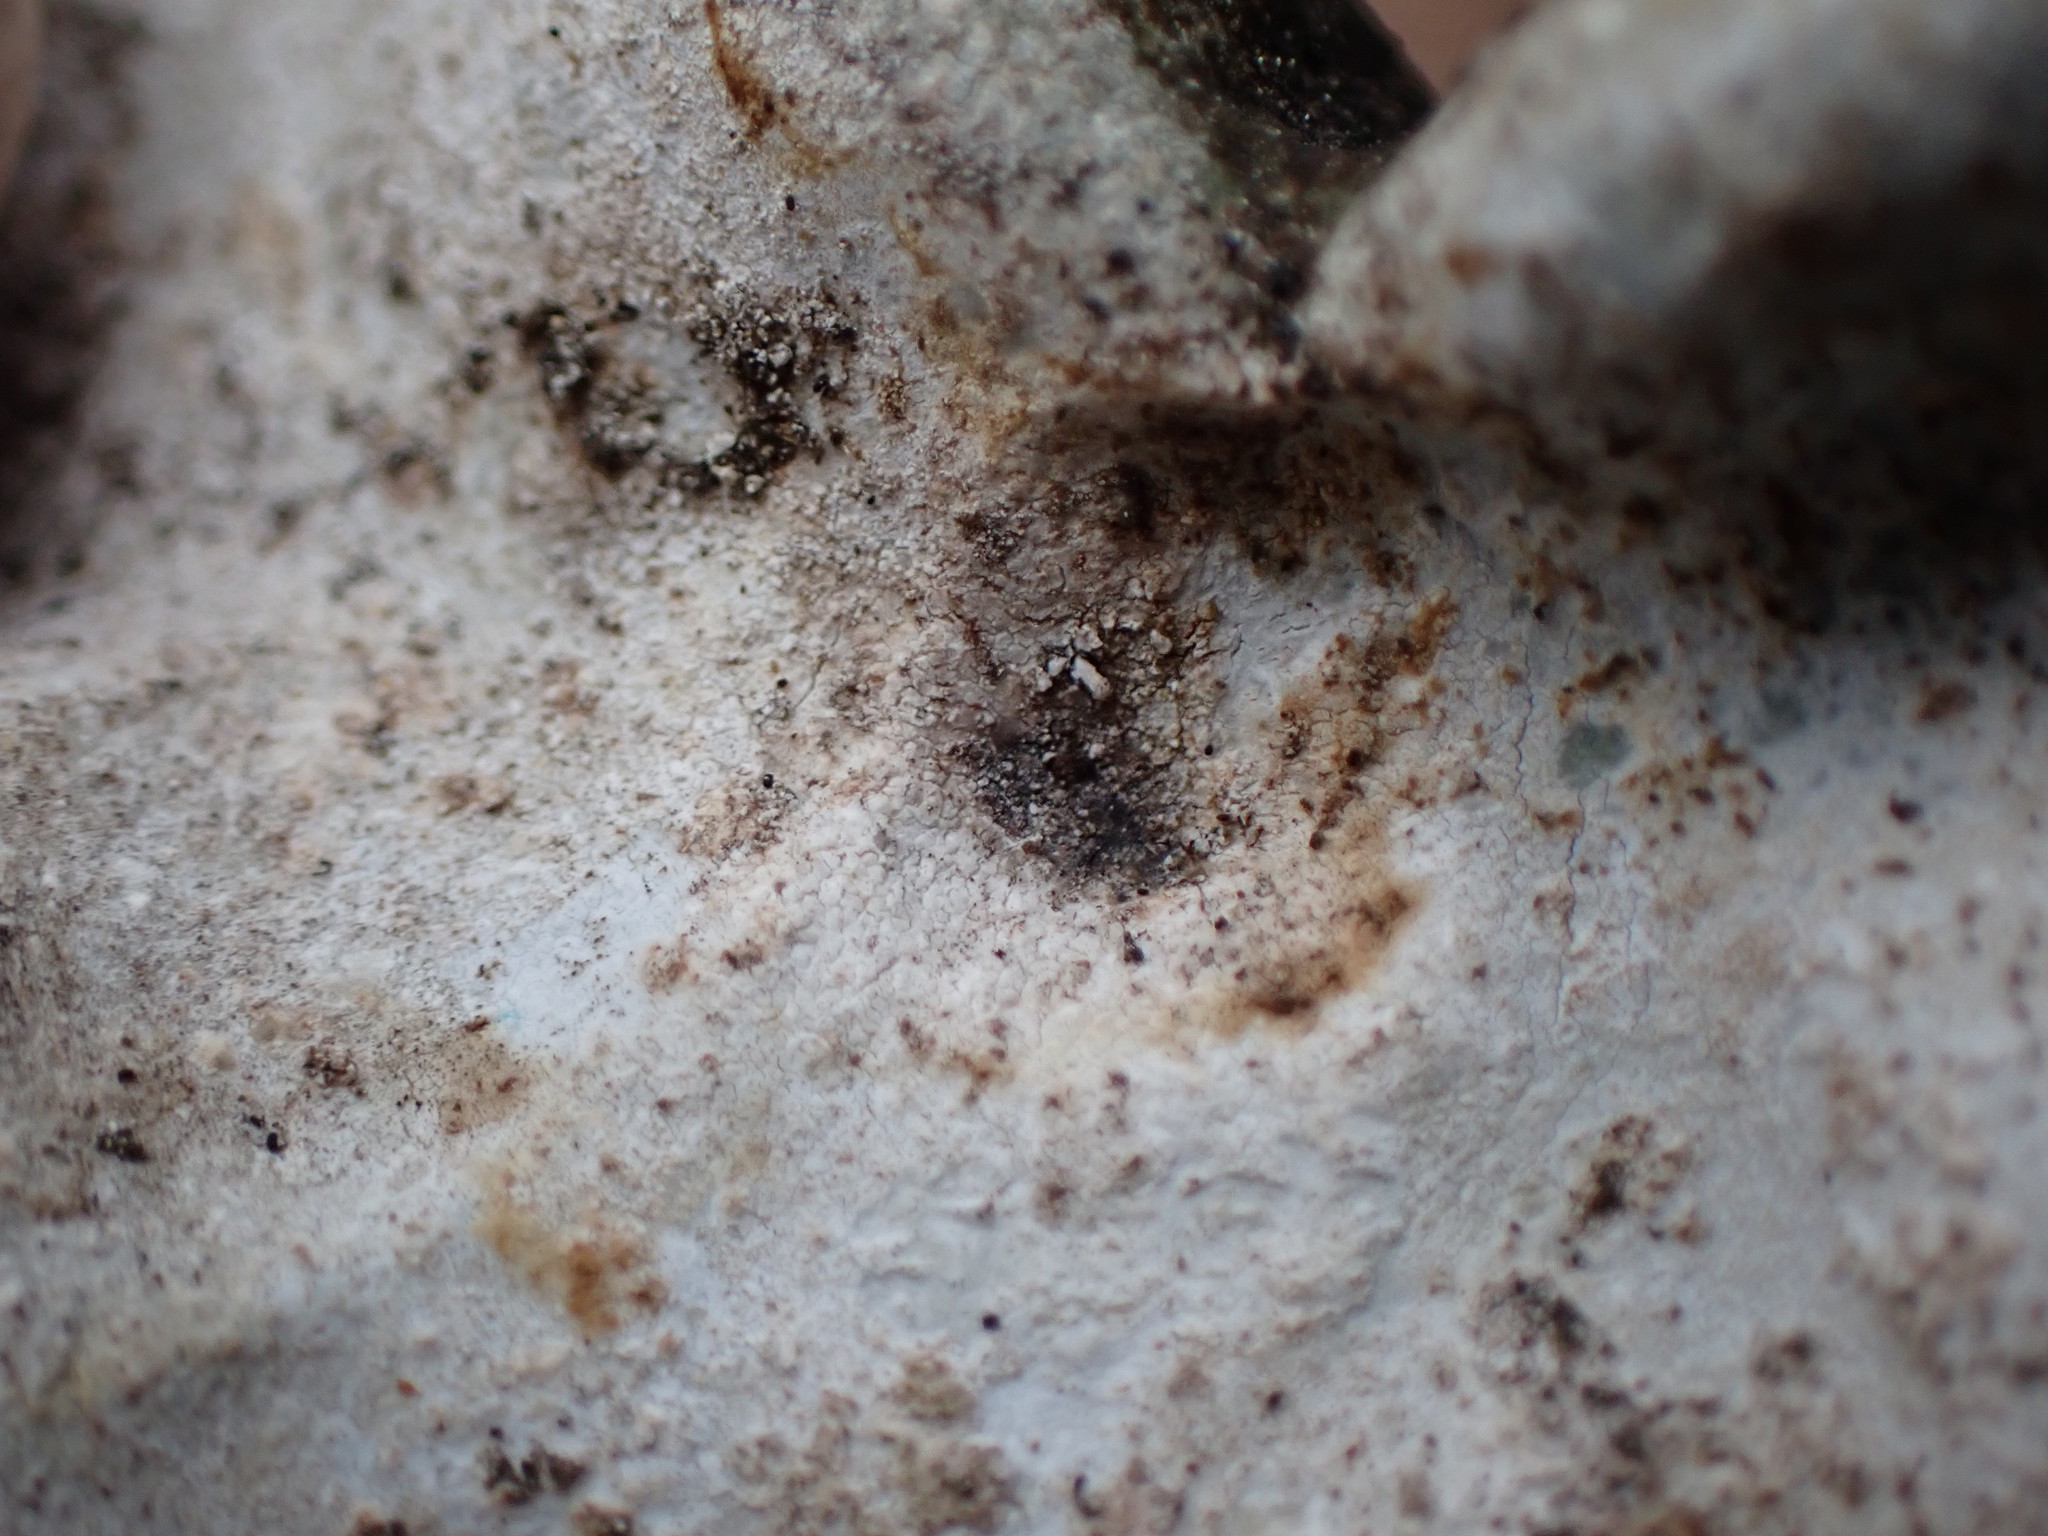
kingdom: Fungi
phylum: Ascomycota
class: Lecanoromycetes
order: Umbilicariales
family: Umbilicariaceae
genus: Umbilicaria
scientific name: Umbilicaria americana
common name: Frosted rock tripe
